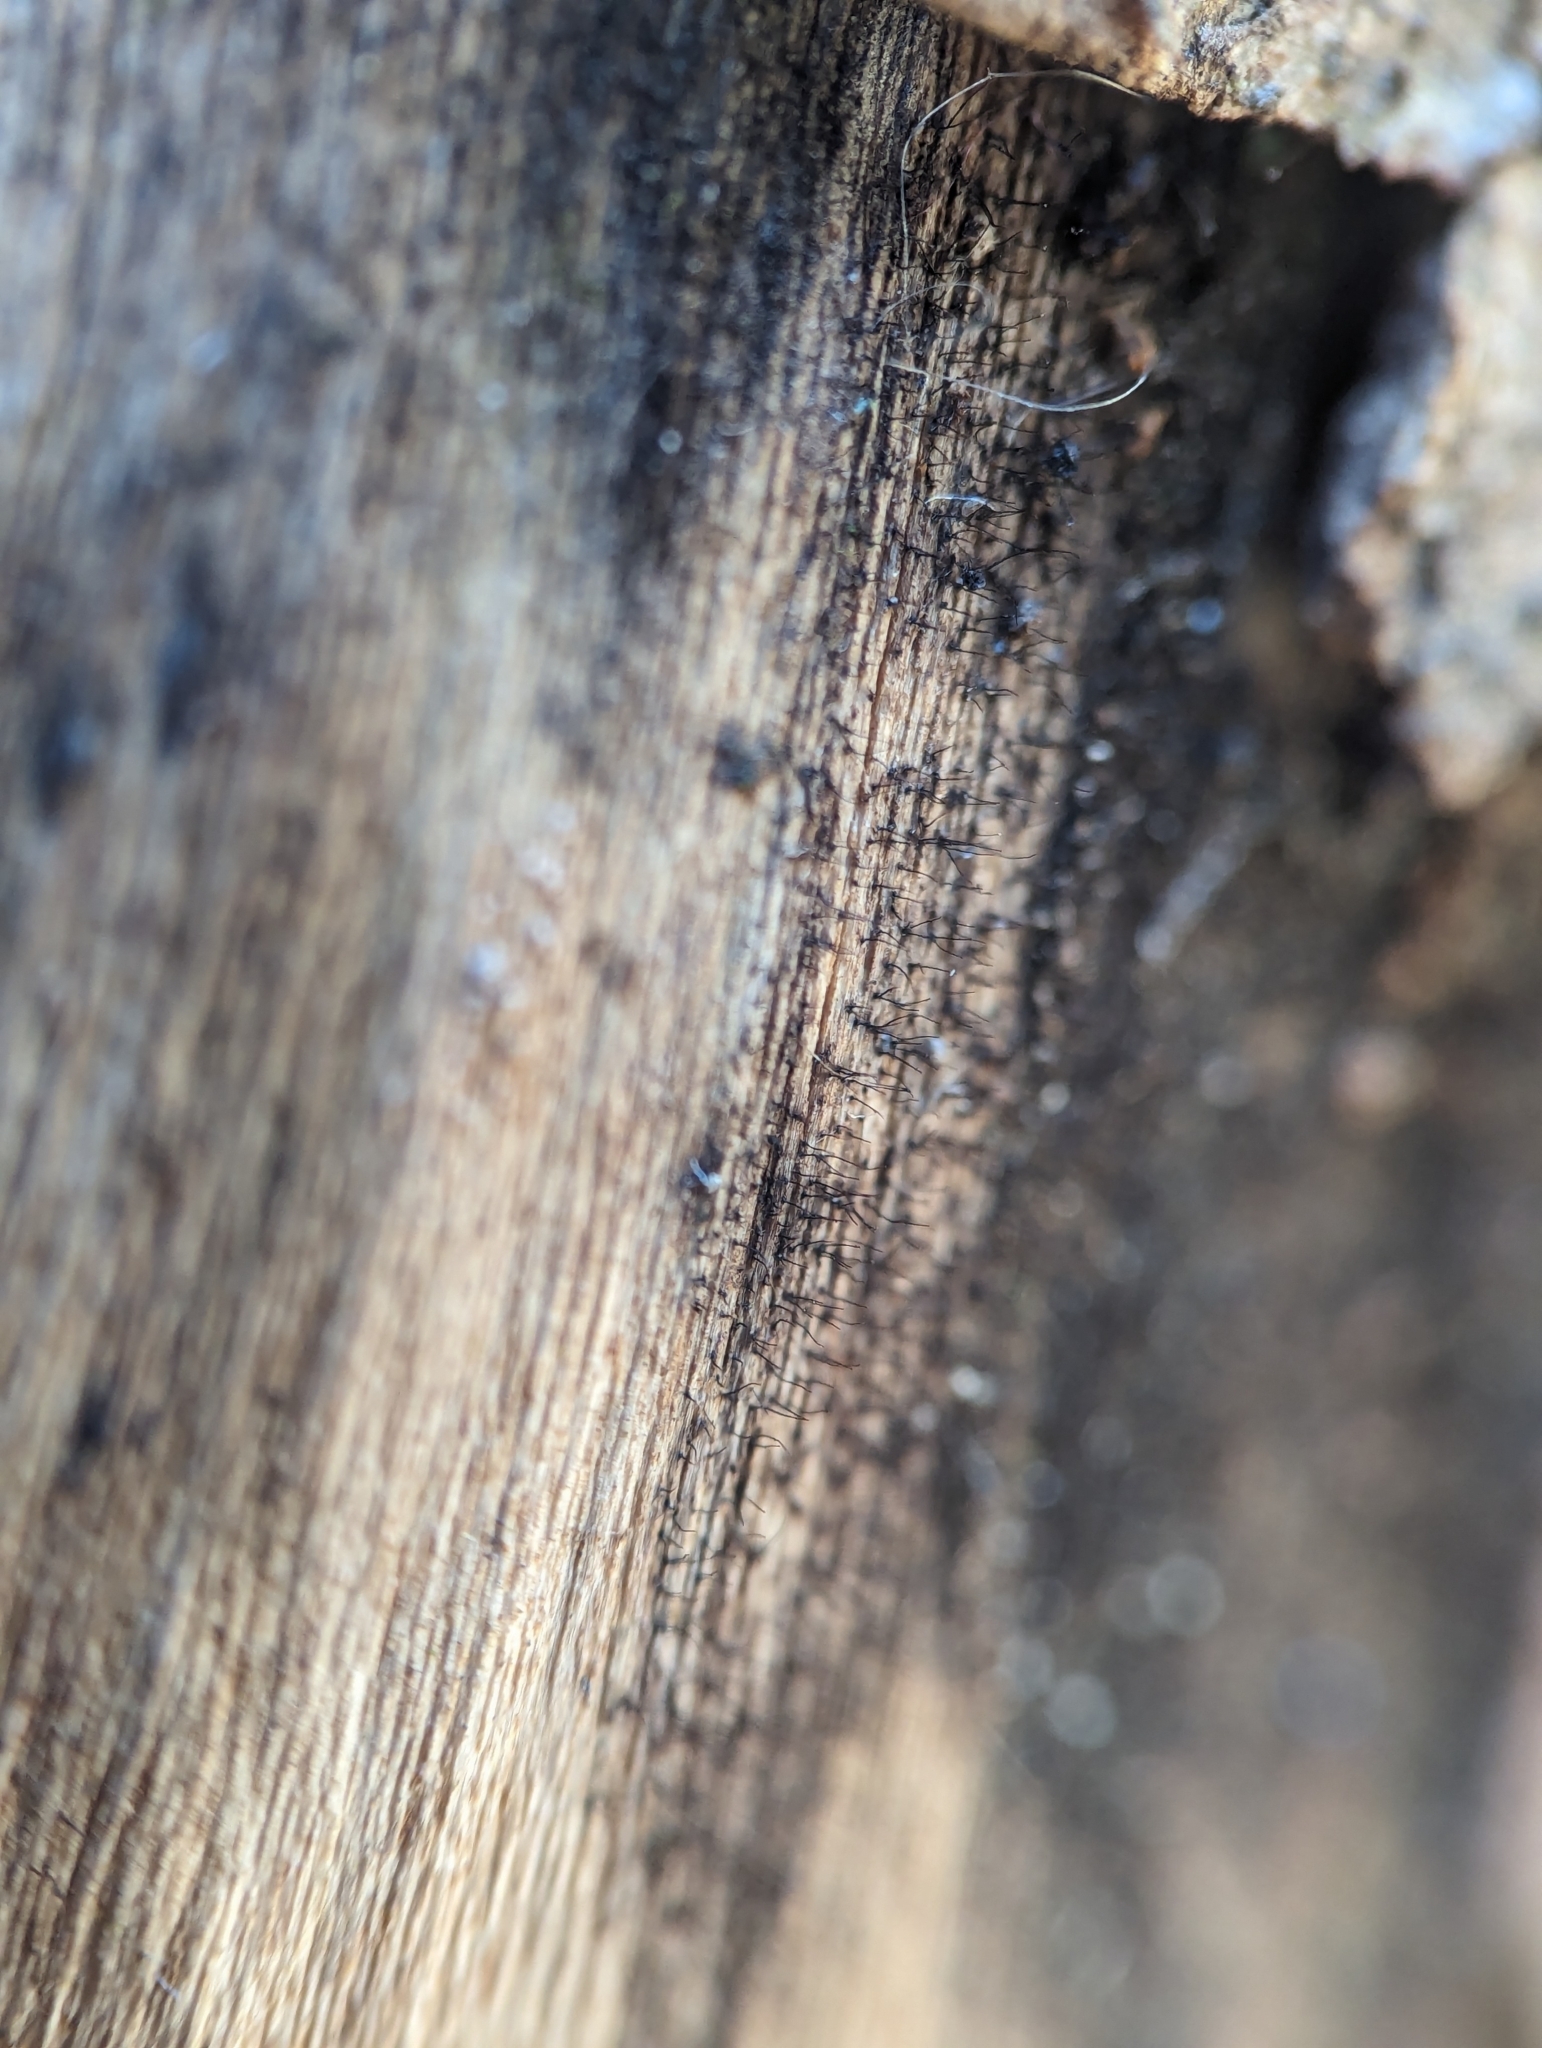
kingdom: Fungi
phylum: Ascomycota
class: Dothideomycetes
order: Pleosporales
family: Massarinaceae
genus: Helminthosporium
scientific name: Helminthosporium velutinum
